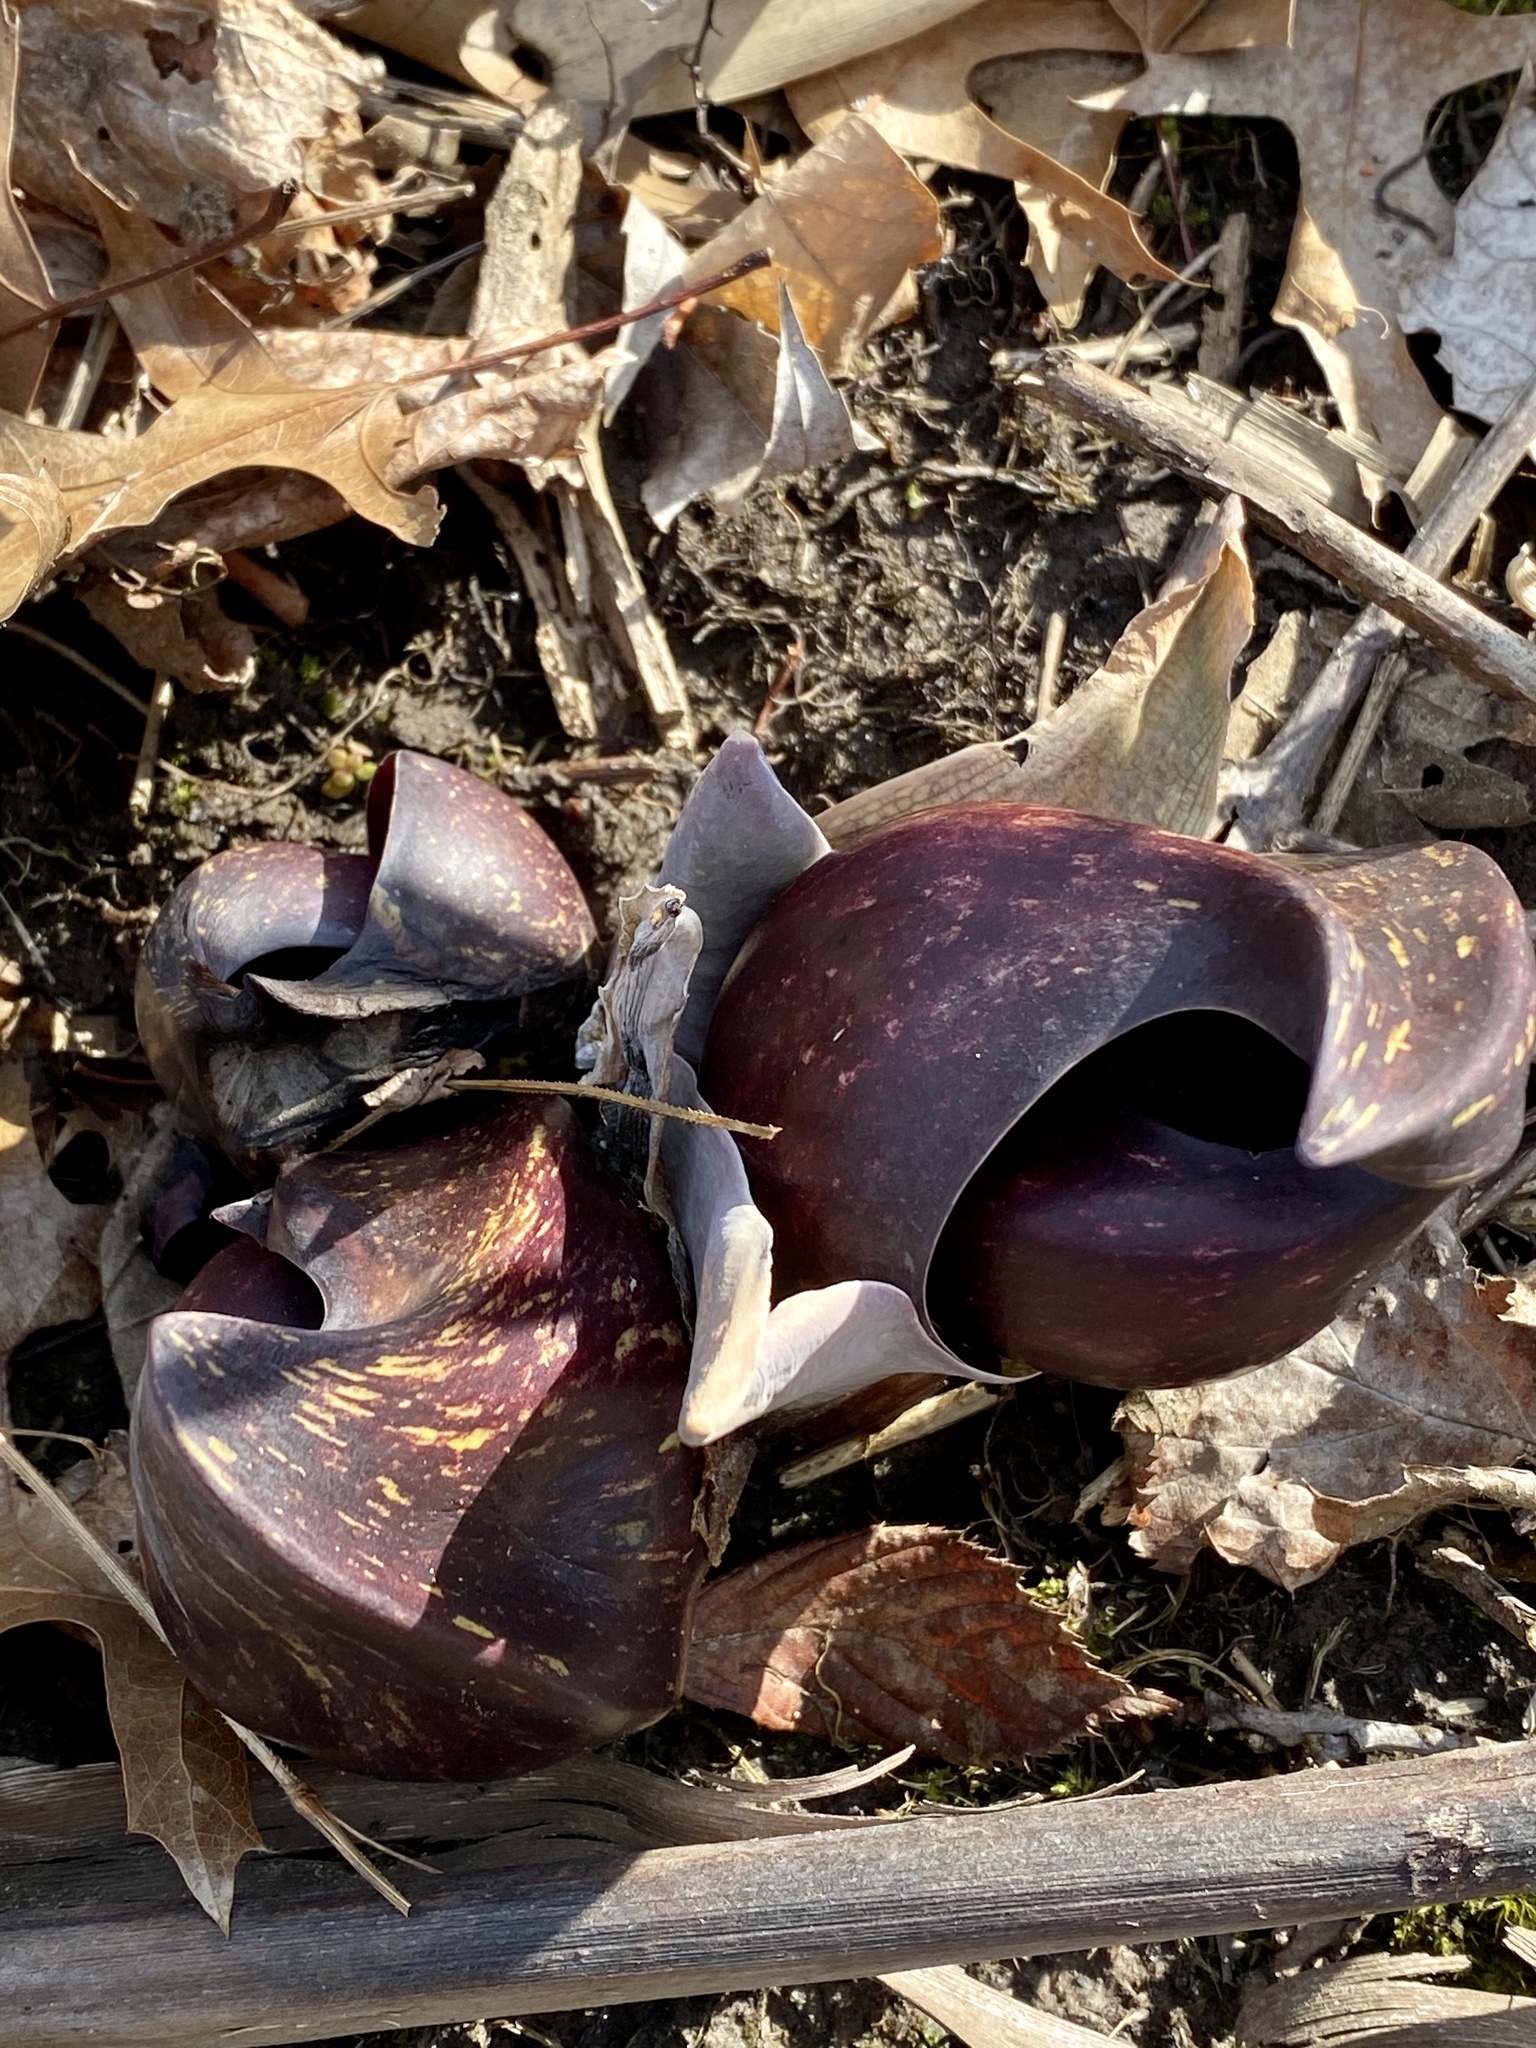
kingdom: Plantae
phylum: Tracheophyta
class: Liliopsida
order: Alismatales
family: Araceae
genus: Symplocarpus
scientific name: Symplocarpus foetidus
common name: Eastern skunk cabbage
